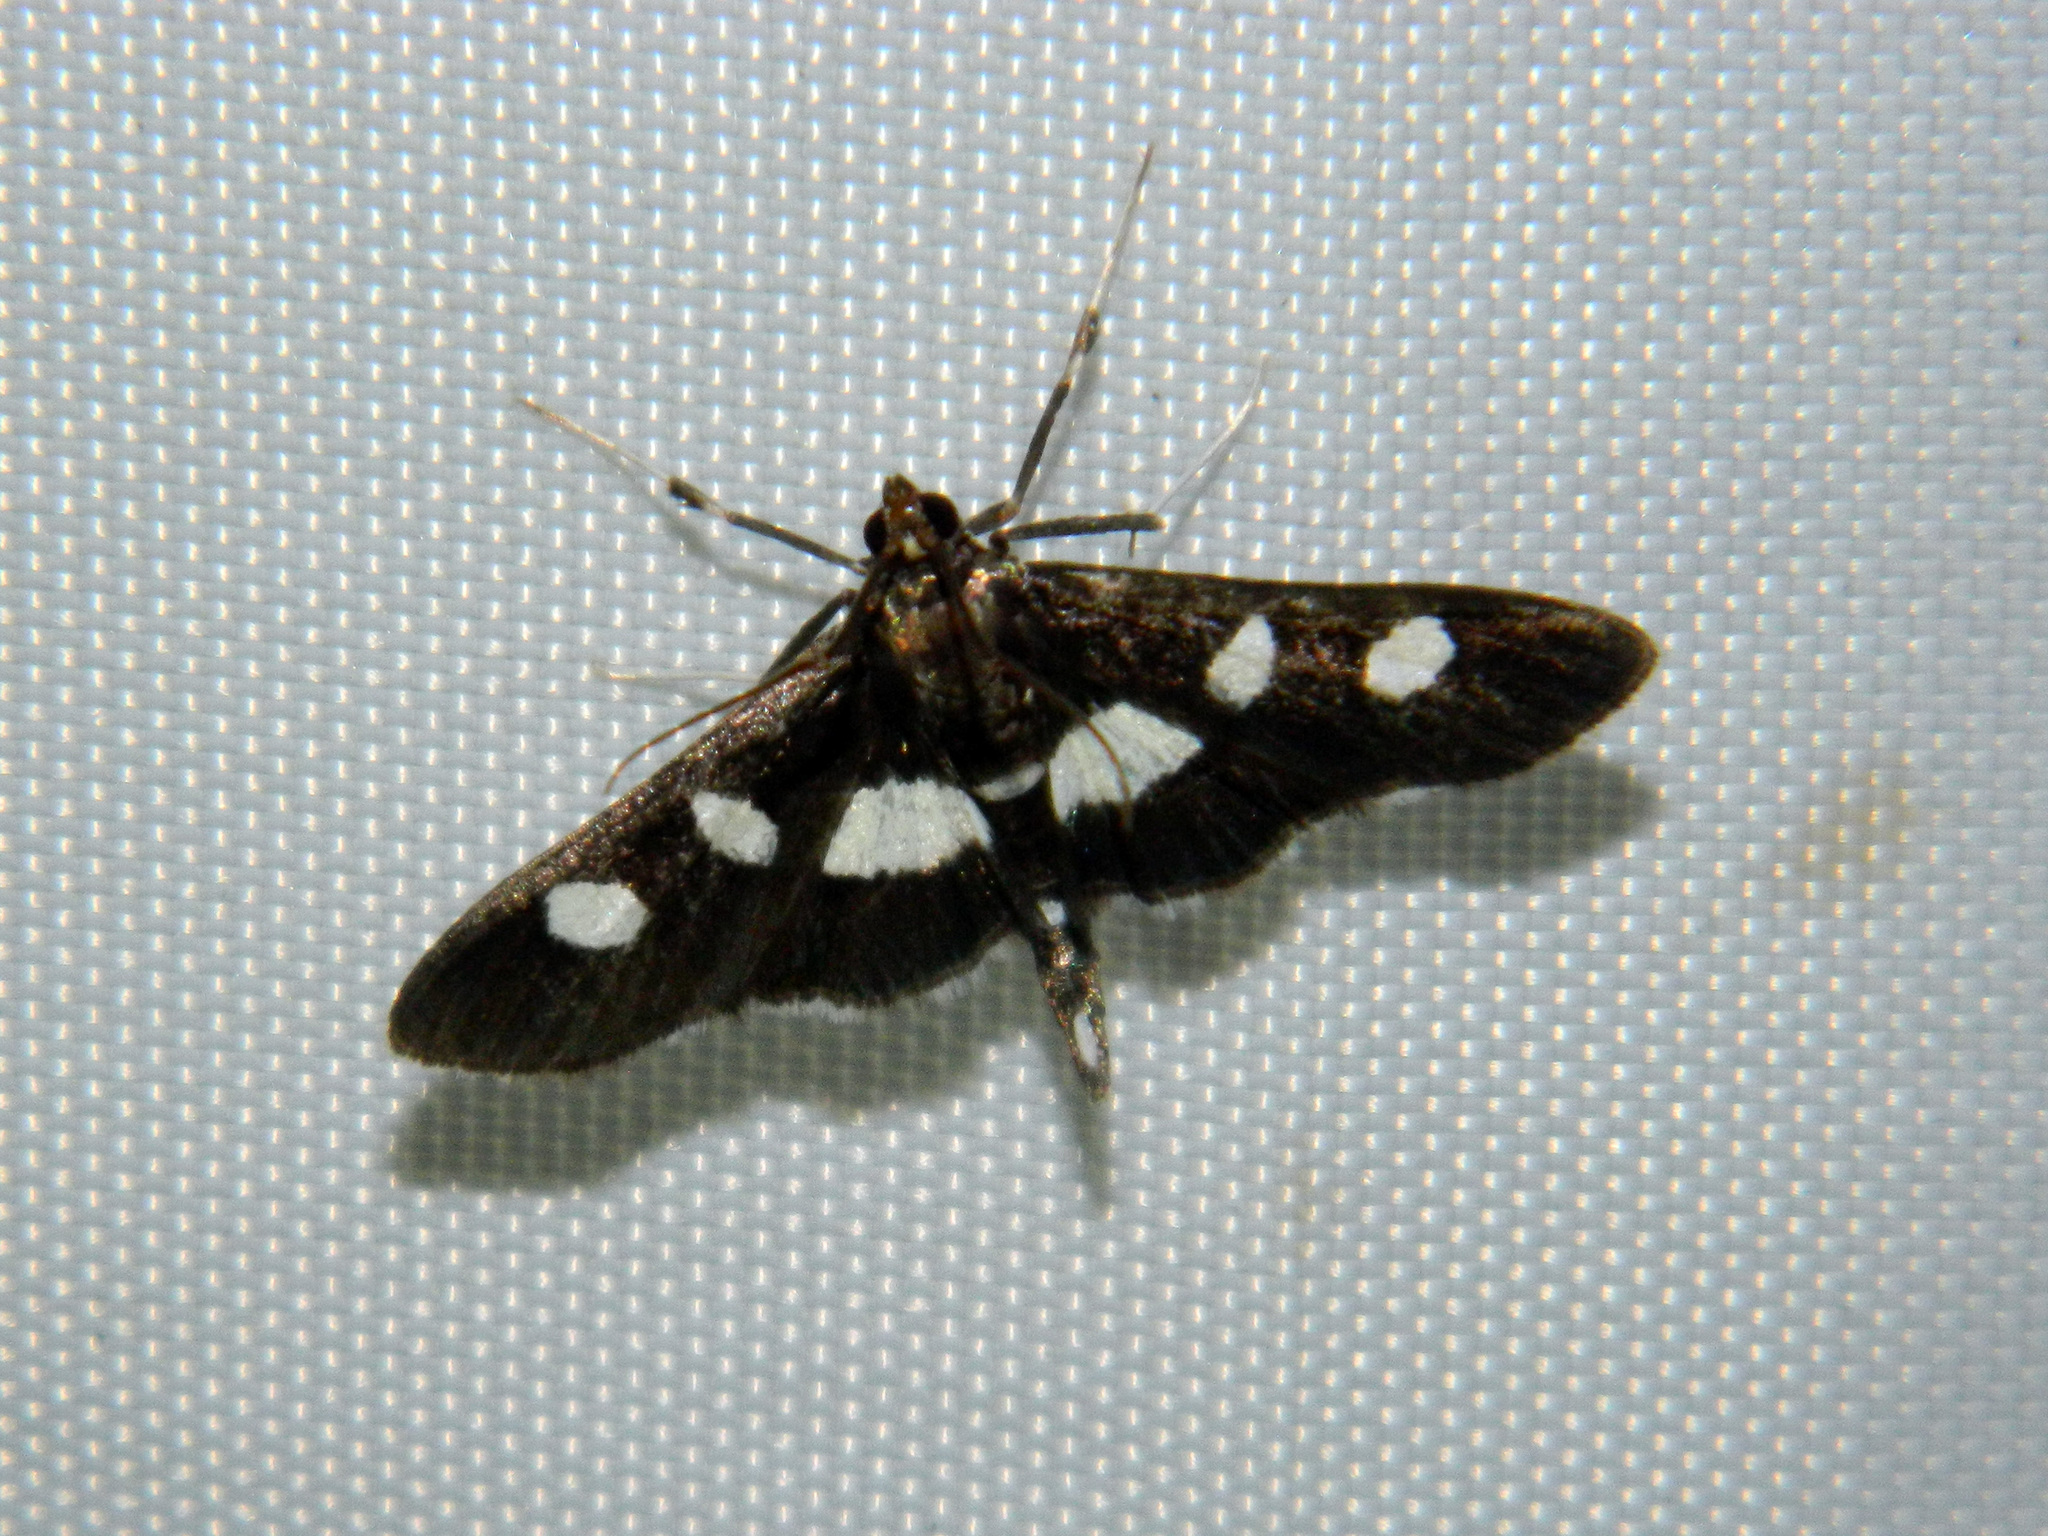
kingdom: Animalia
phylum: Arthropoda
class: Insecta
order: Lepidoptera
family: Crambidae
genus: Desmia
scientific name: Desmia funeralis
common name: Grape leaf folder moth
